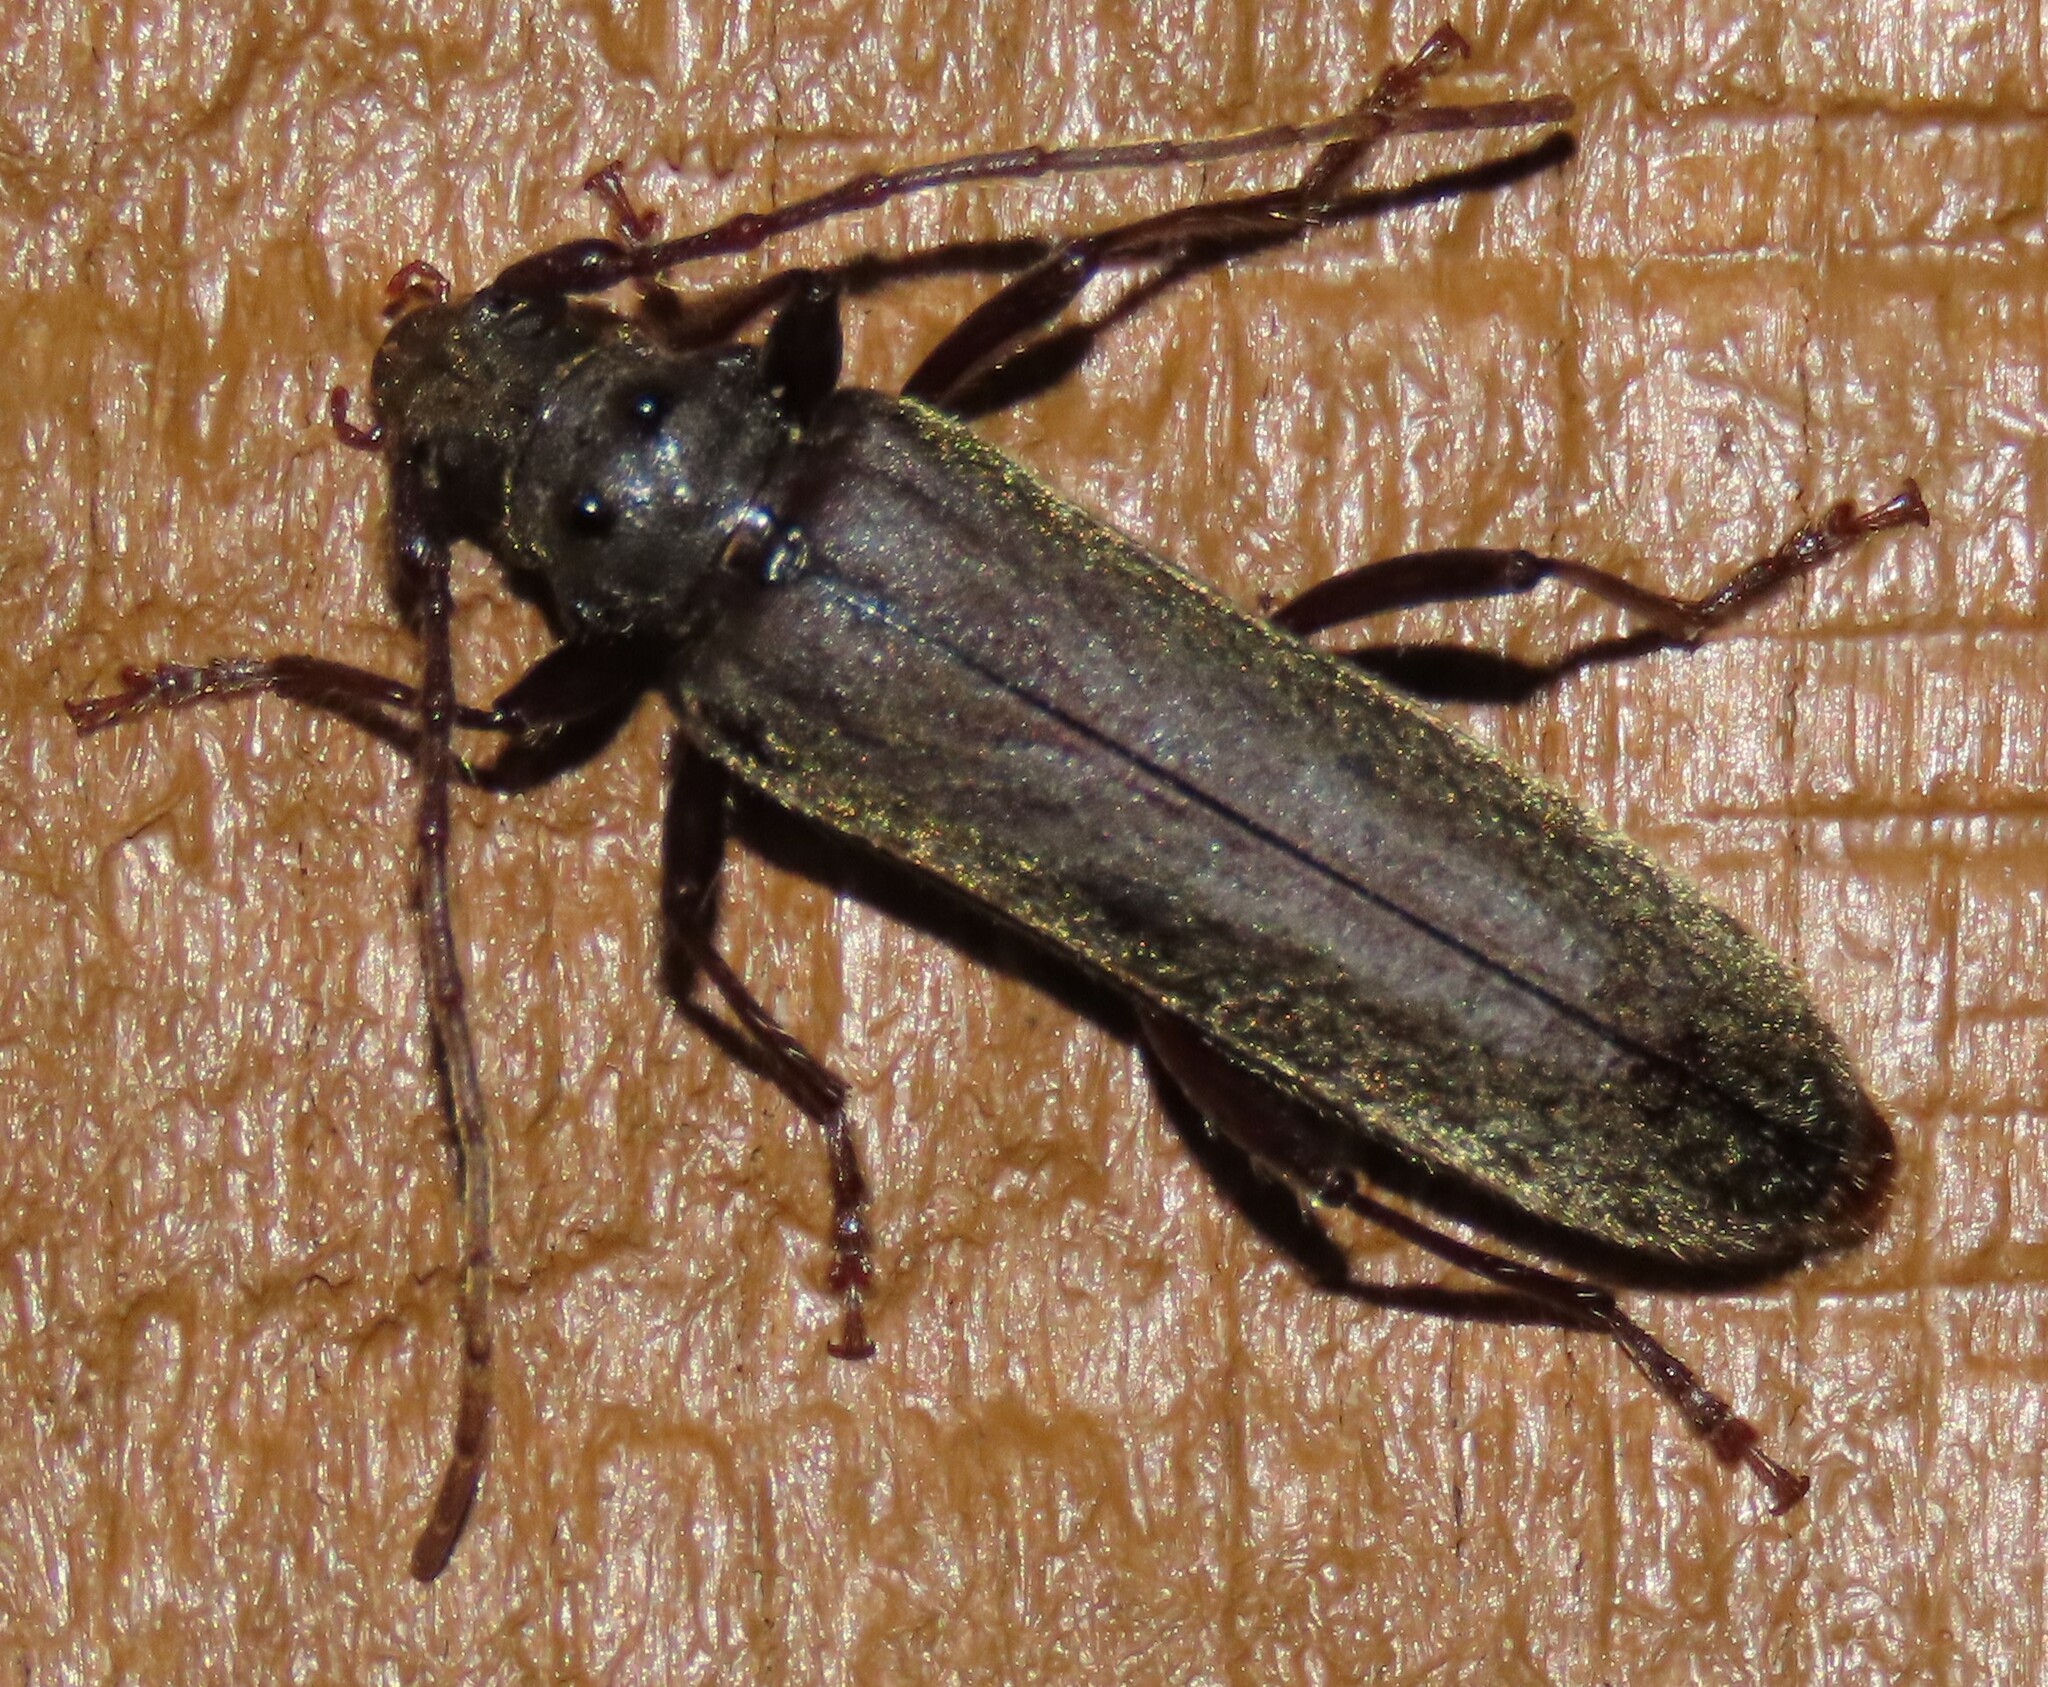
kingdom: Animalia
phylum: Arthropoda
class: Insecta
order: Coleoptera
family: Cerambycidae
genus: Ambeodontus
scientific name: Ambeodontus tristis
